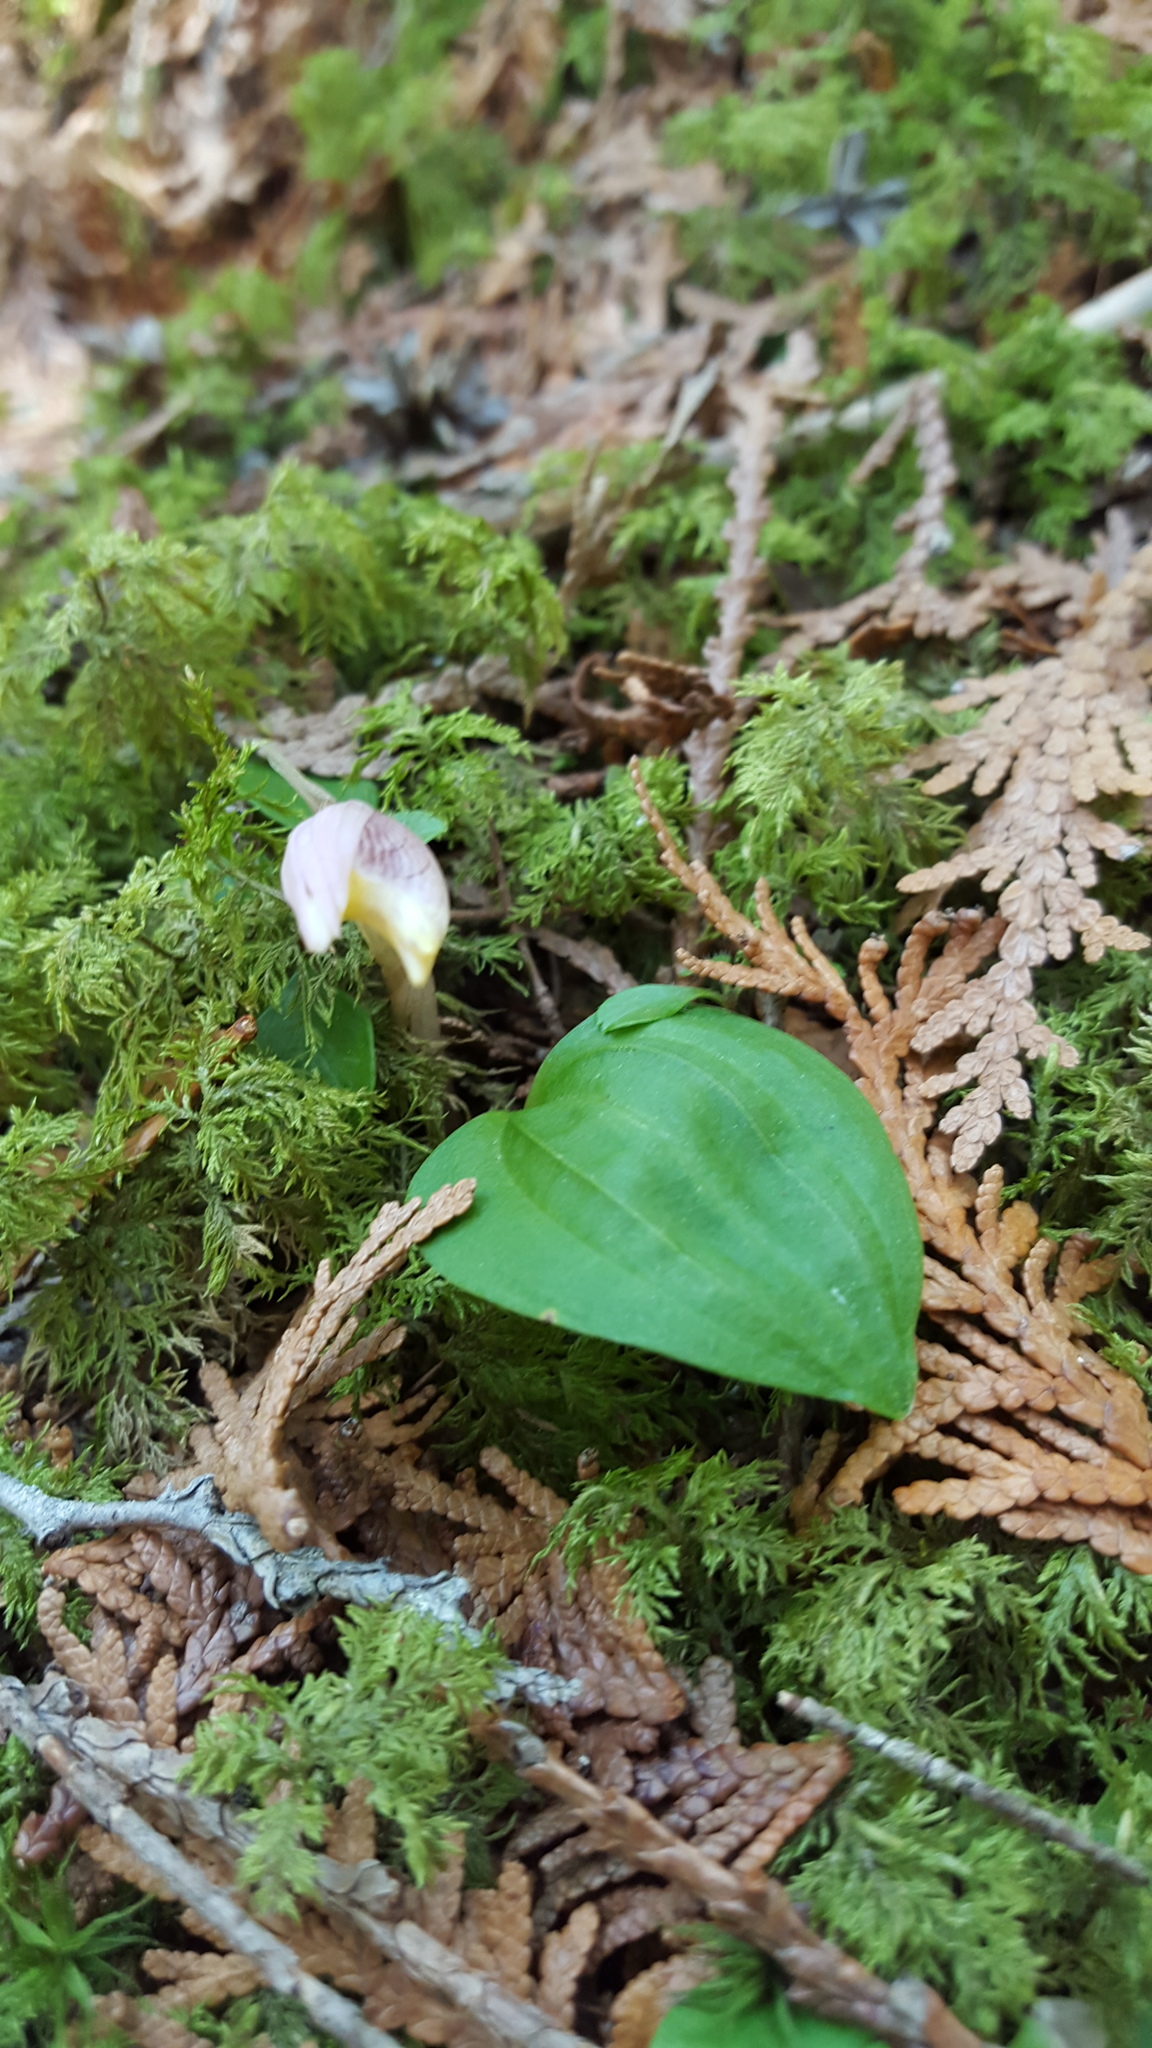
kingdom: Plantae
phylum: Tracheophyta
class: Liliopsida
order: Asparagales
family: Orchidaceae
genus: Calypso
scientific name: Calypso bulbosa
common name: Calypso
